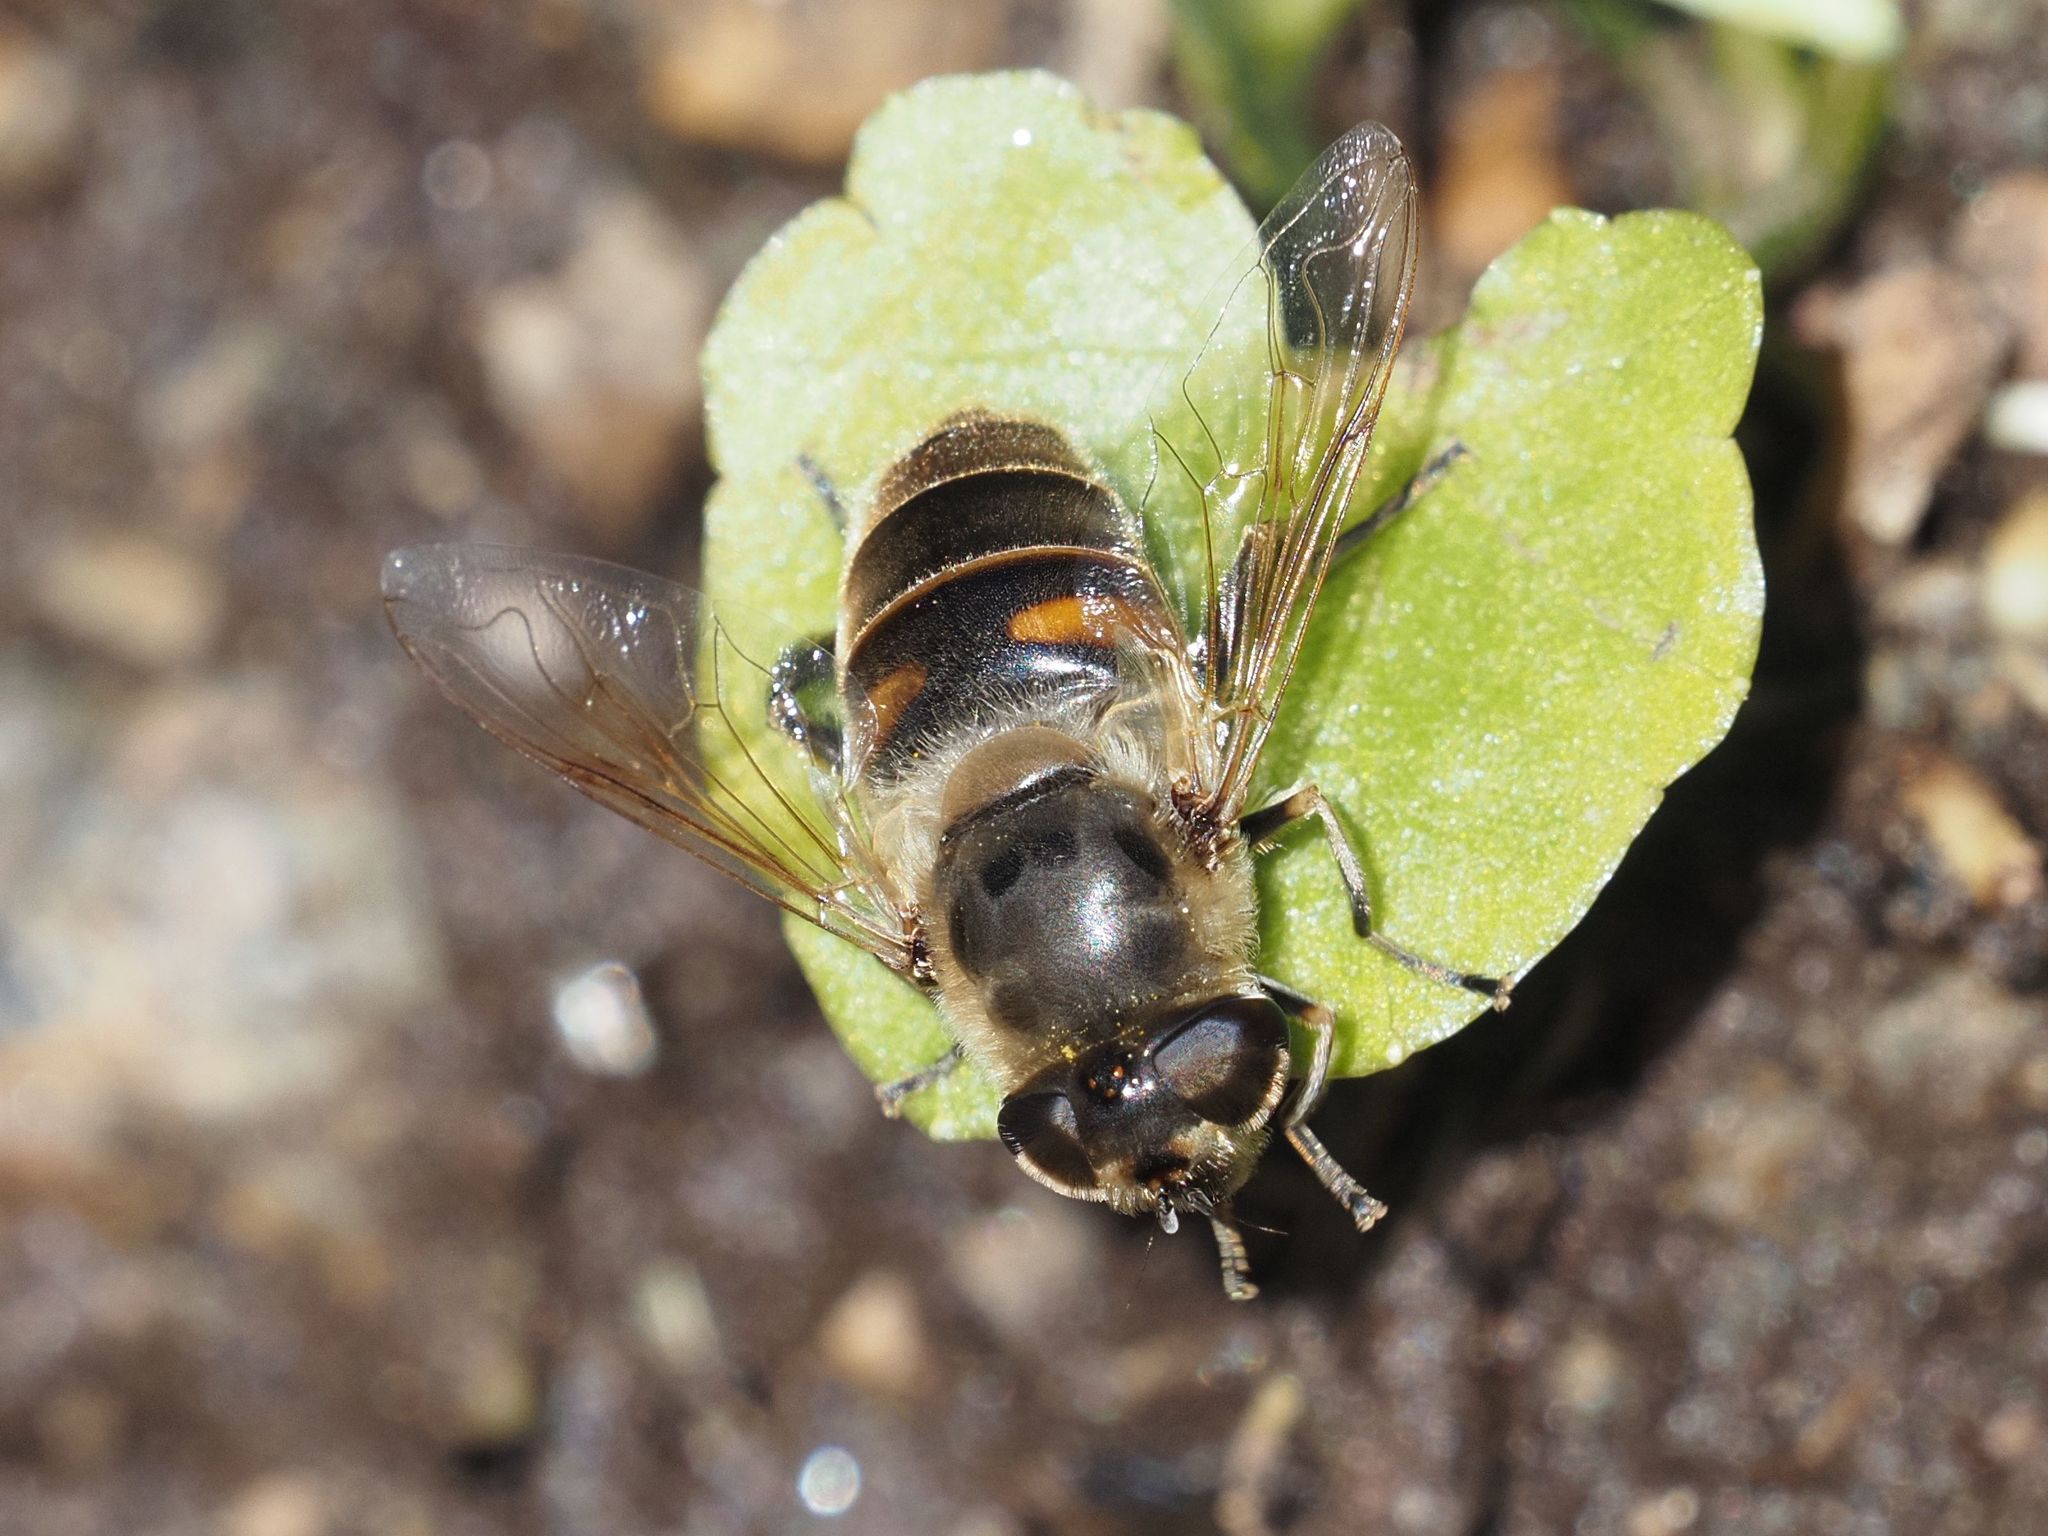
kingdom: Animalia
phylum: Arthropoda
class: Insecta
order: Diptera
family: Syrphidae
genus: Eristalis
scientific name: Eristalis tenax
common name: Drone fly
